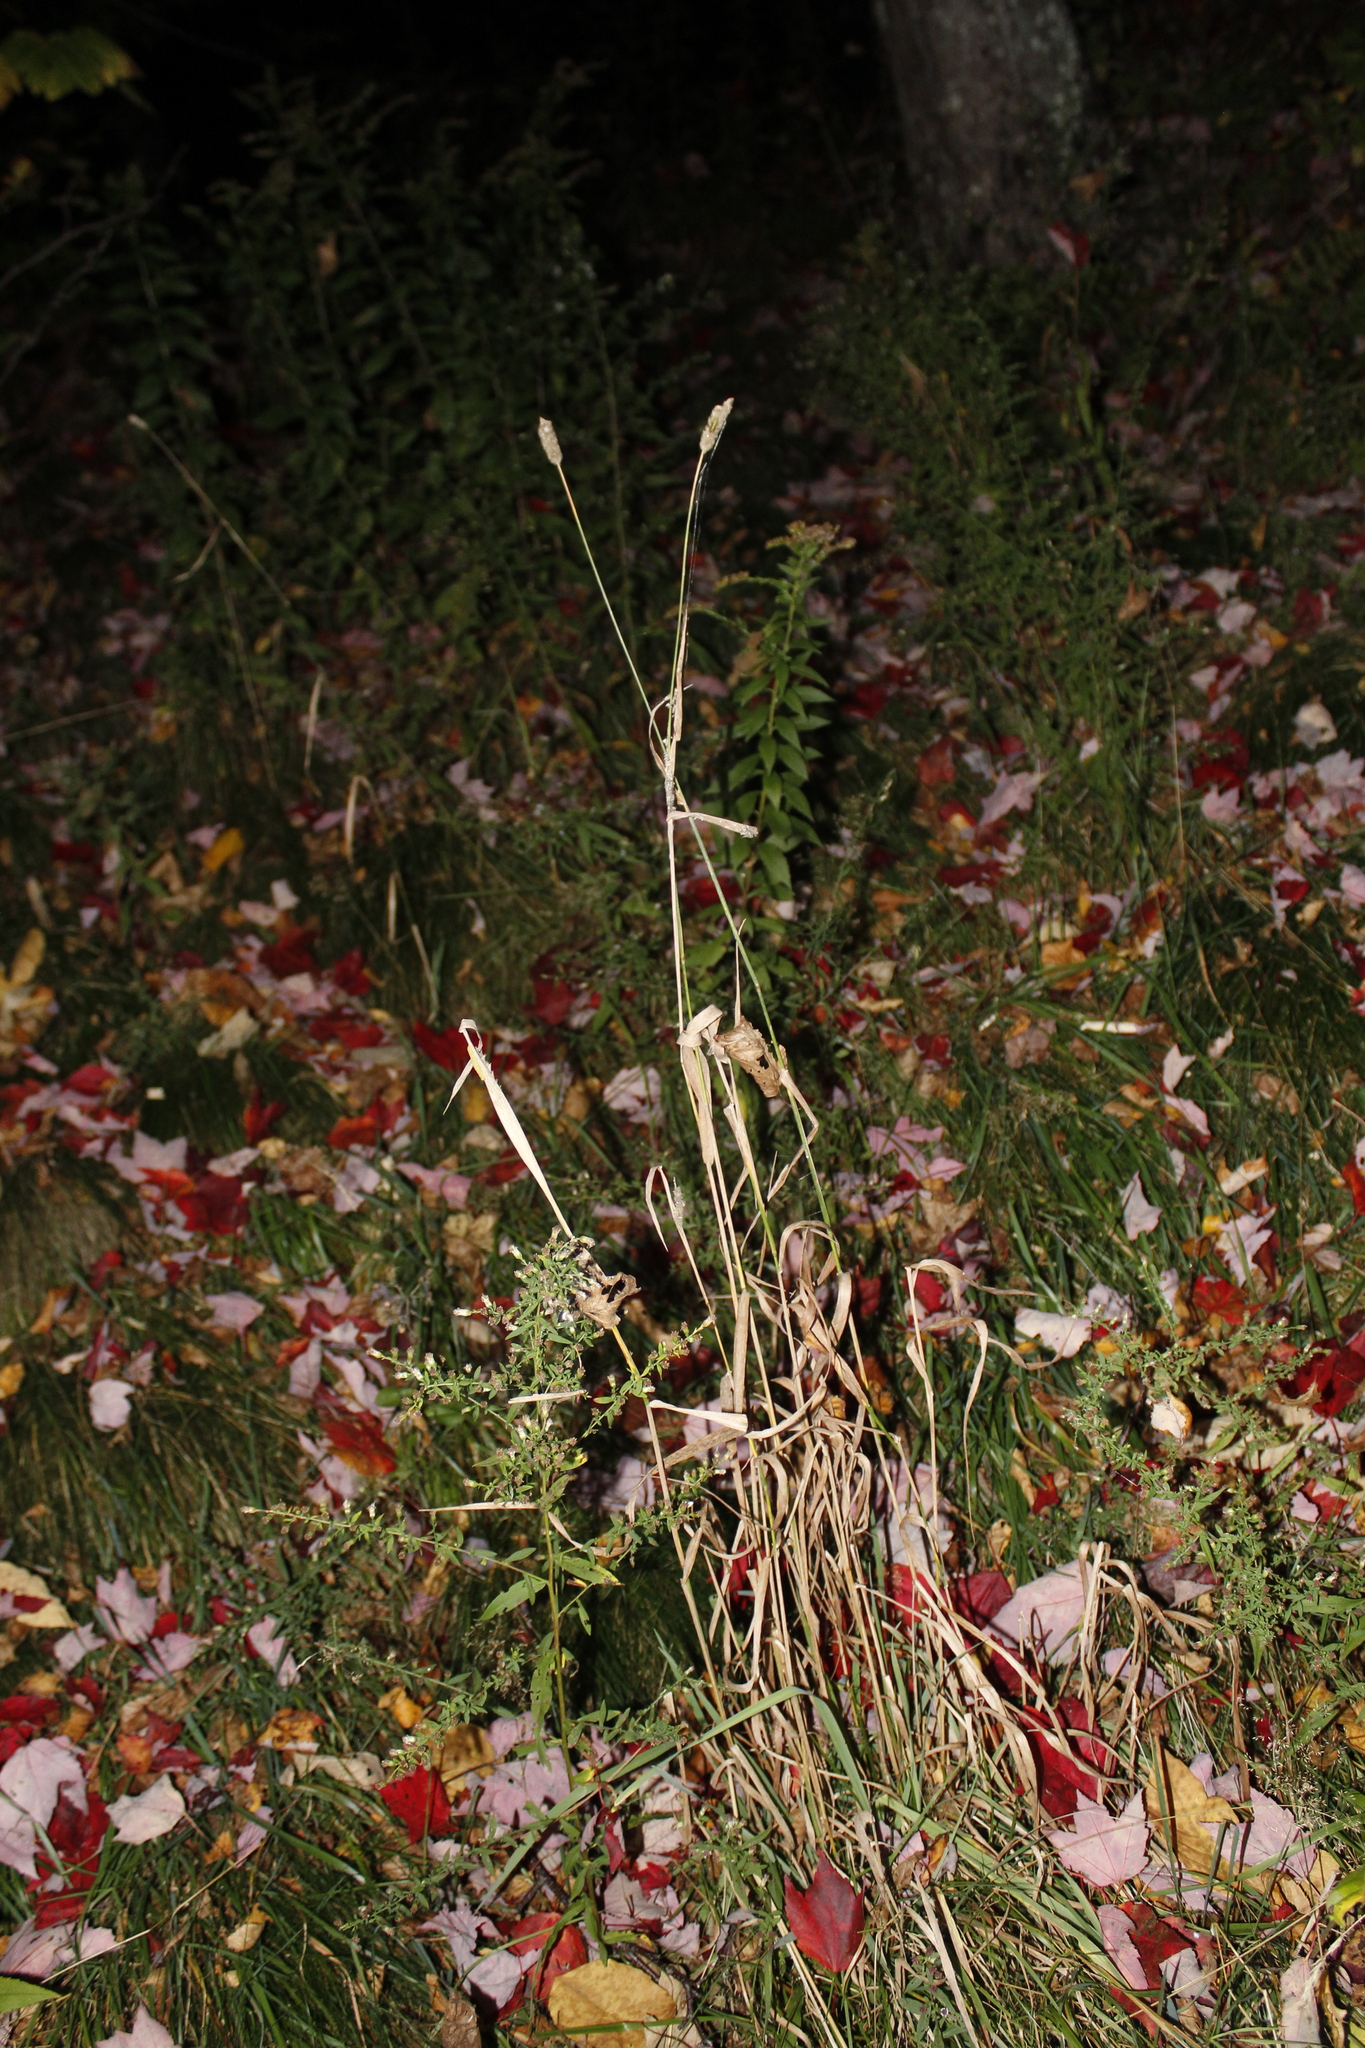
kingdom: Plantae
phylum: Tracheophyta
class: Liliopsida
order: Poales
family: Poaceae
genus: Phleum
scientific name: Phleum pratense
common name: Timothy grass
